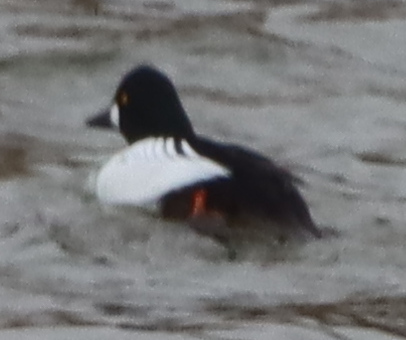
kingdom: Animalia
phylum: Chordata
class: Aves
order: Anseriformes
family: Anatidae
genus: Bucephala
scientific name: Bucephala clangula
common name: Common goldeneye
